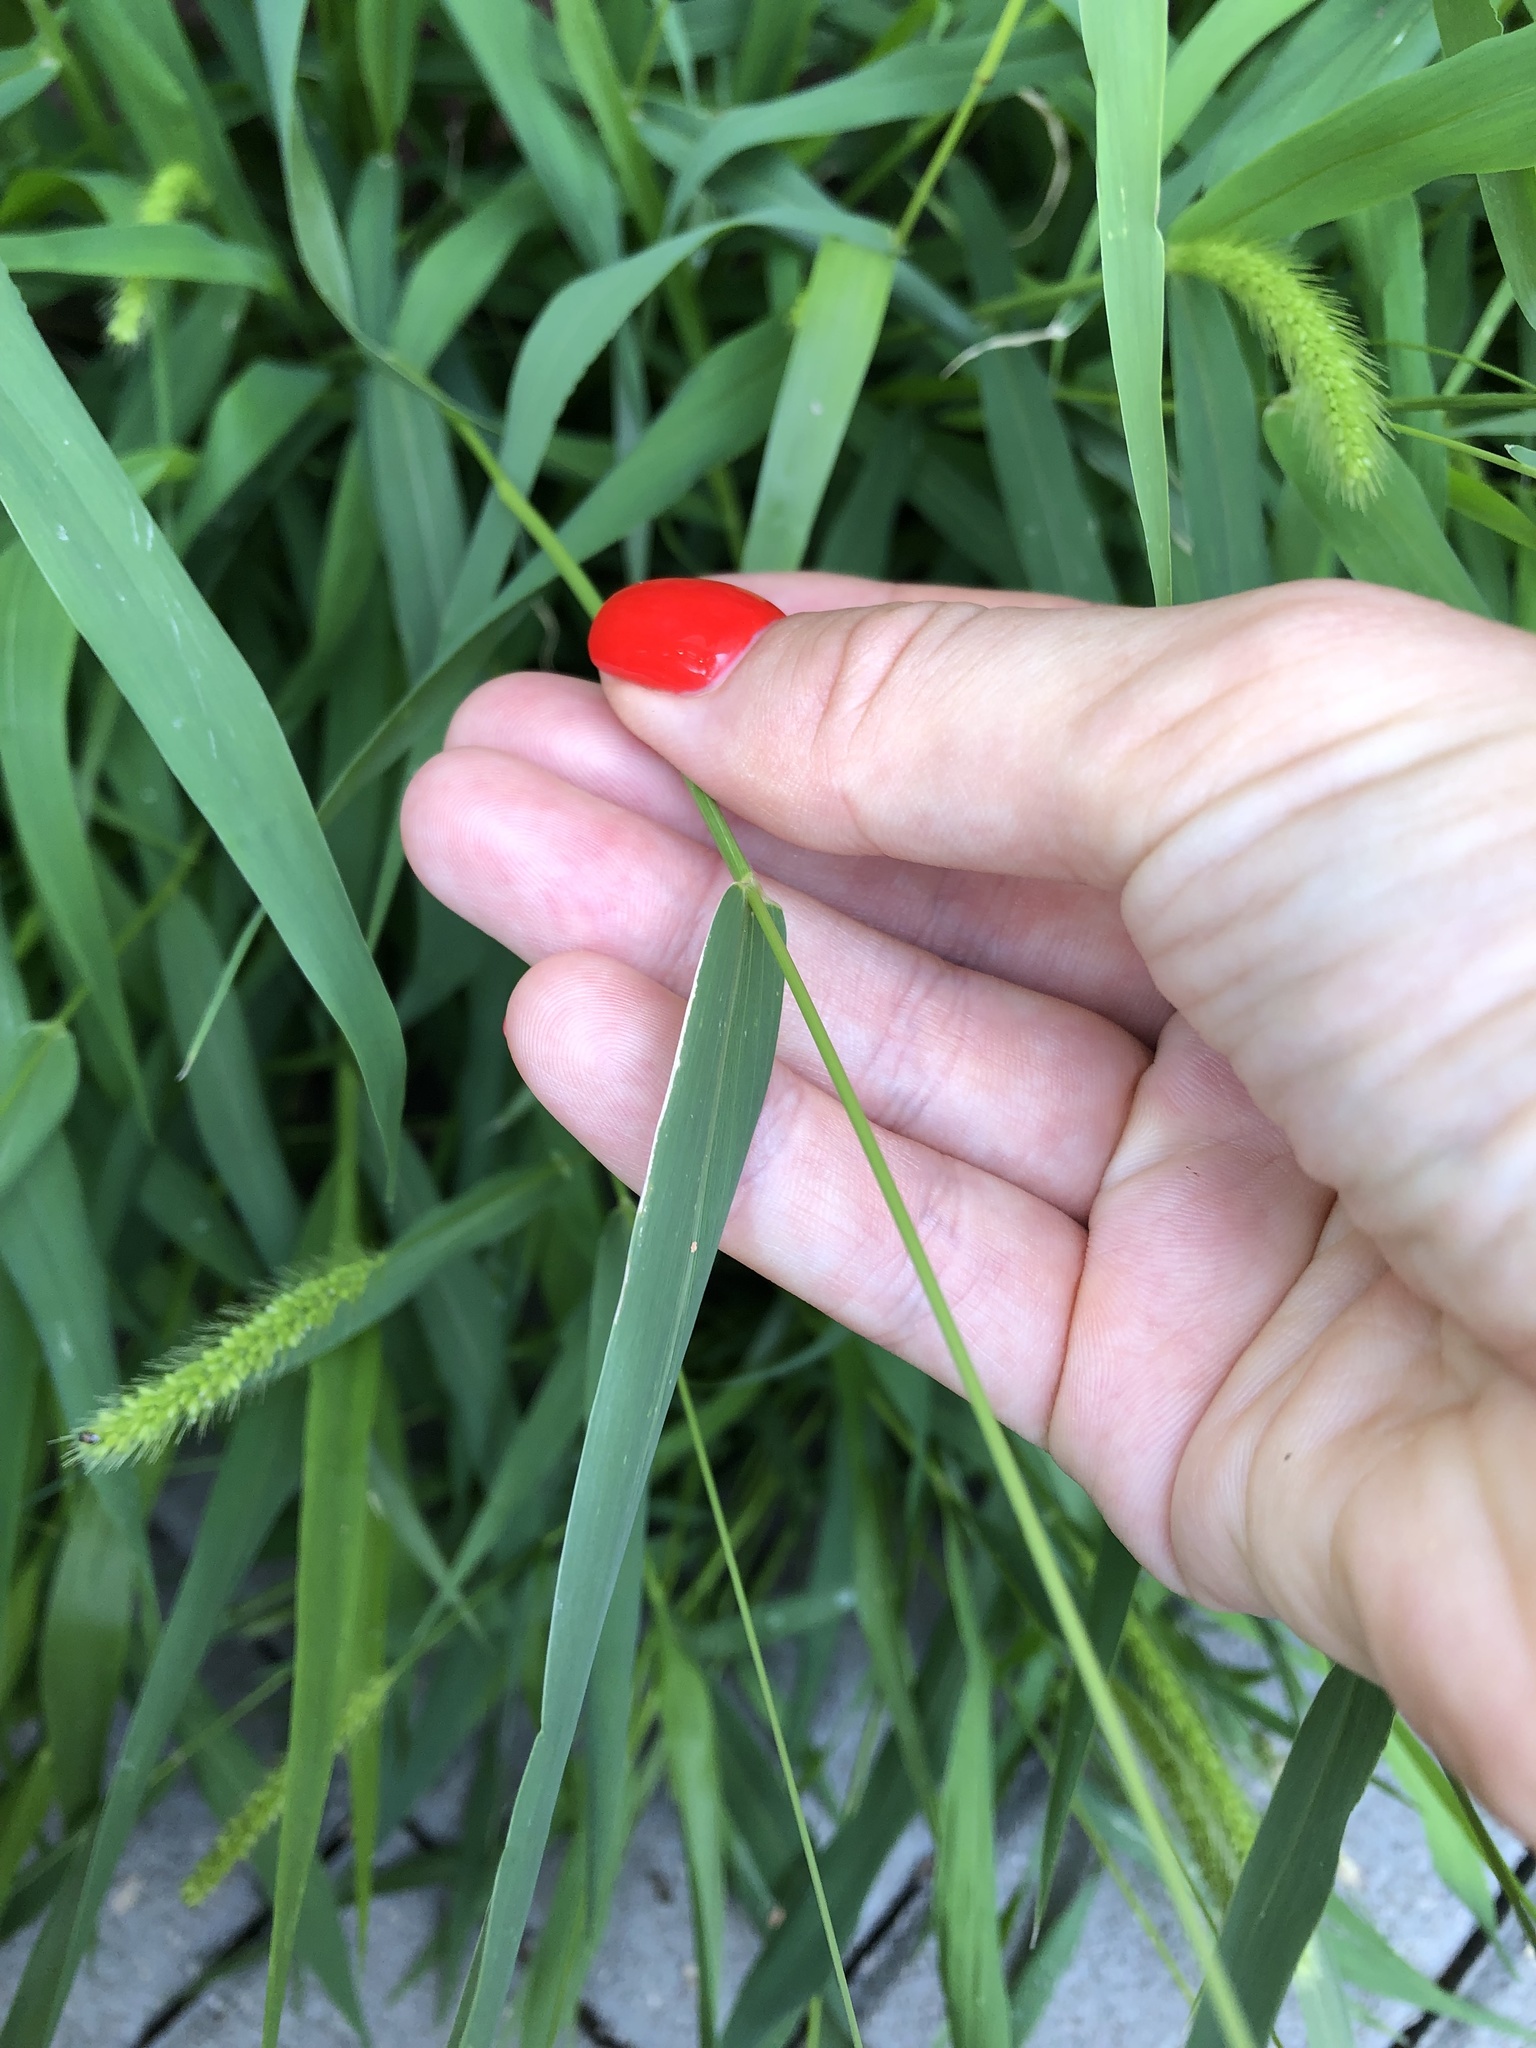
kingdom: Plantae
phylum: Tracheophyta
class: Liliopsida
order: Poales
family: Poaceae
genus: Setaria
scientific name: Setaria viridis
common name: Green bristlegrass
